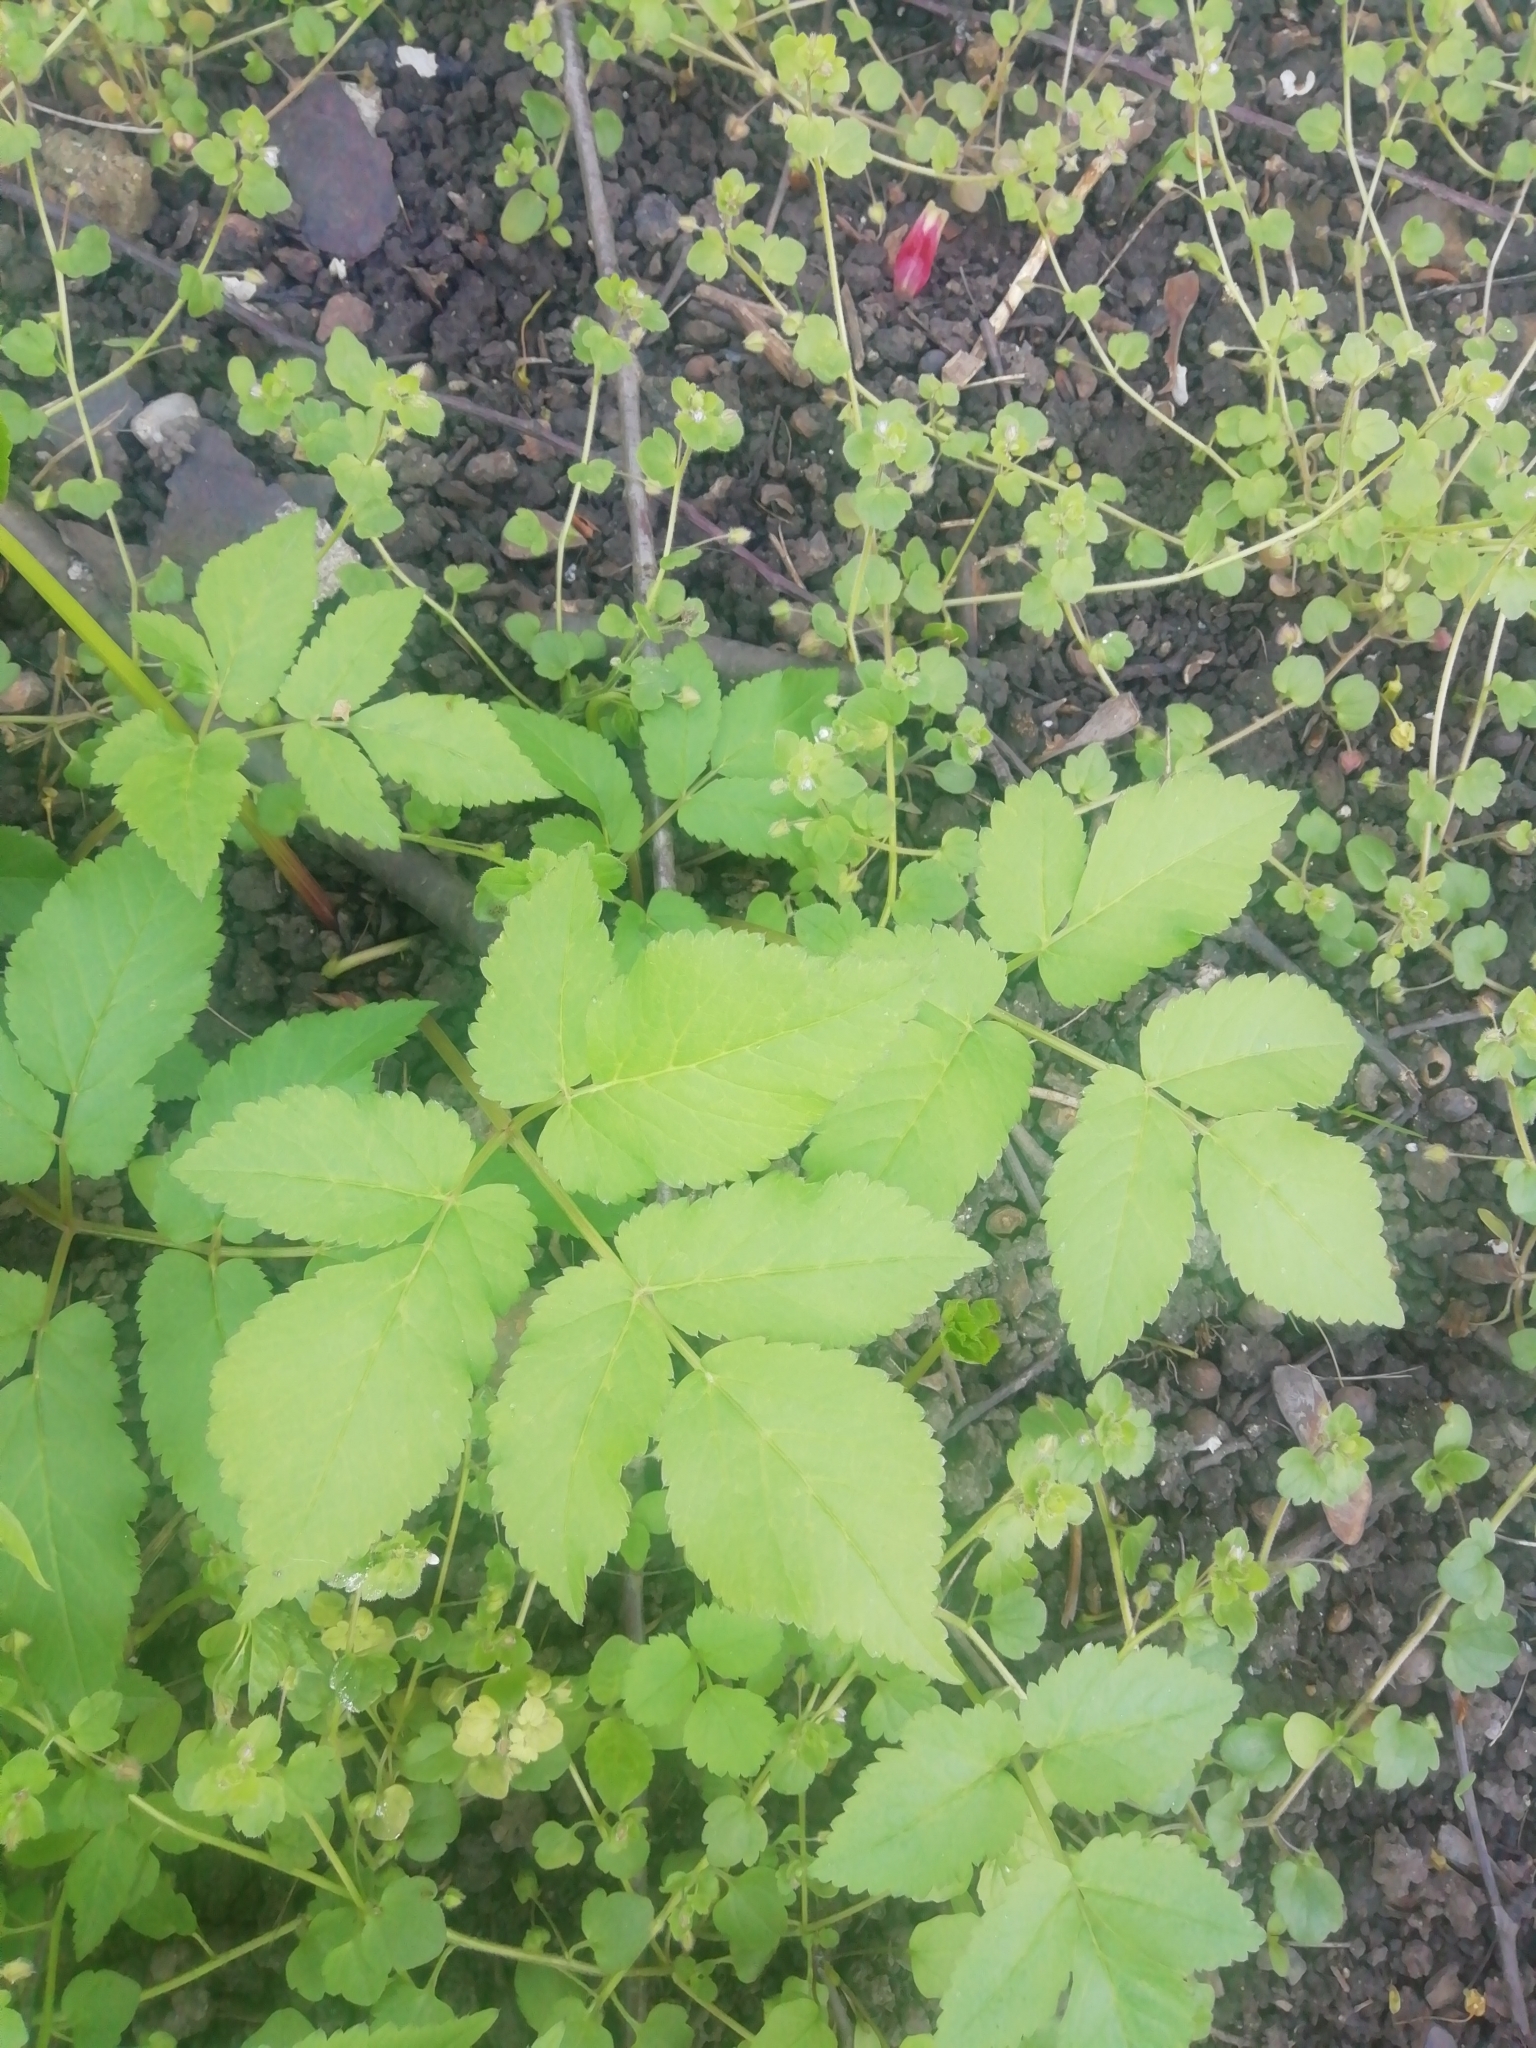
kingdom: Plantae
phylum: Tracheophyta
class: Magnoliopsida
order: Apiales
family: Apiaceae
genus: Aegopodium
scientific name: Aegopodium podagraria
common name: Ground-elder
